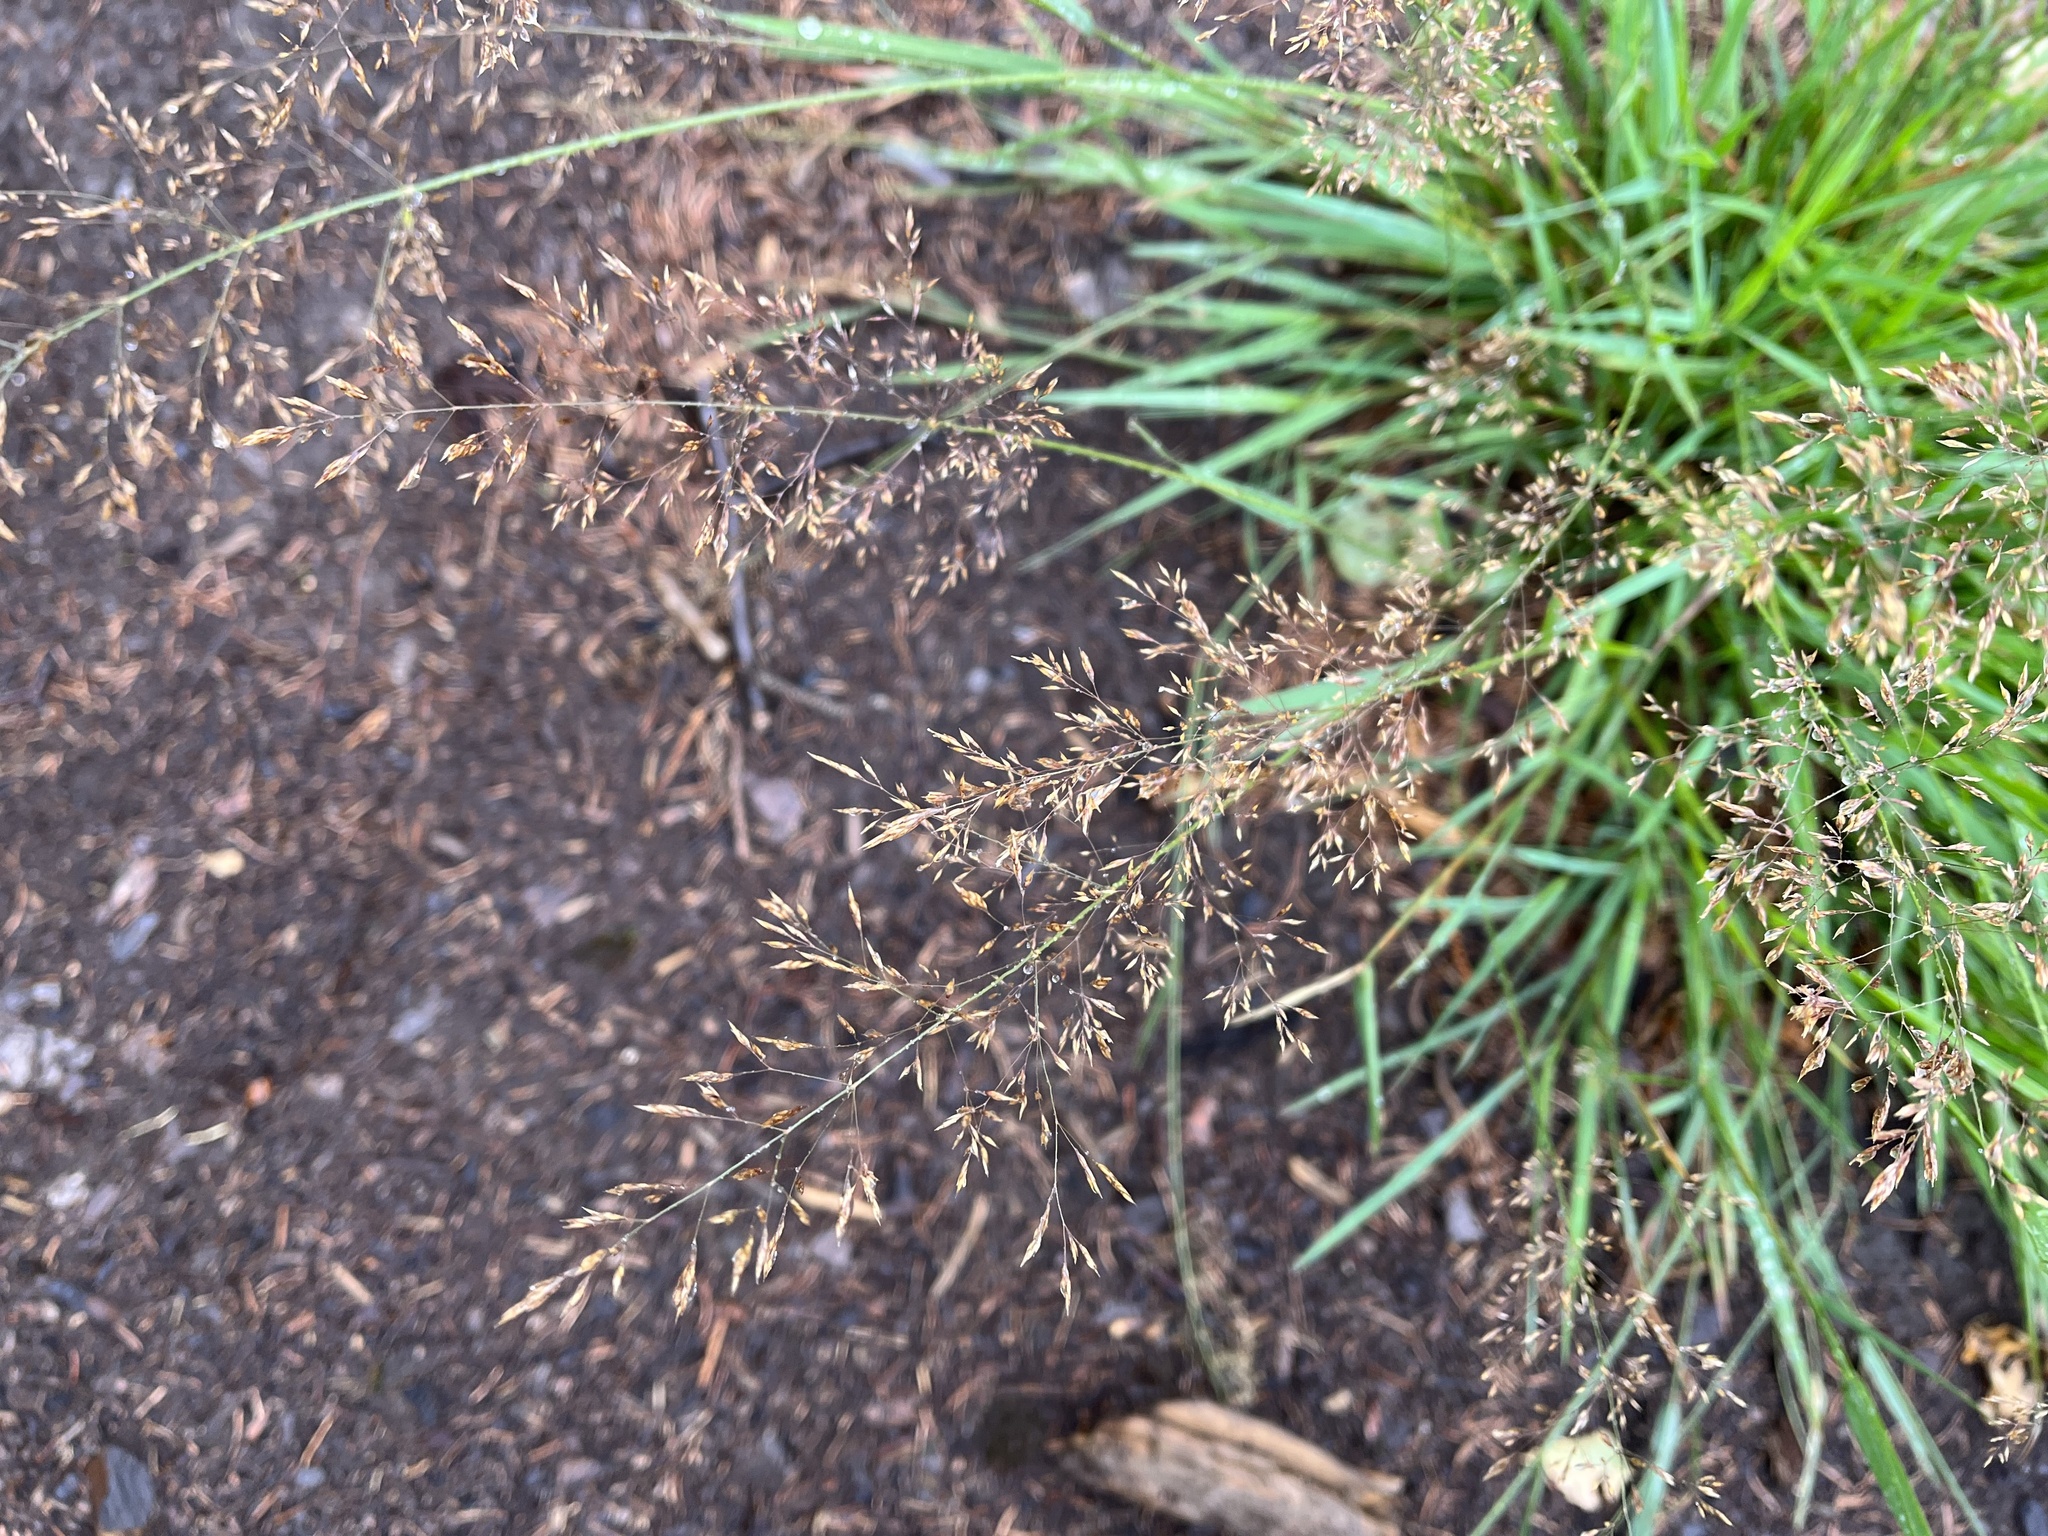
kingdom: Plantae
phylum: Tracheophyta
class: Liliopsida
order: Poales
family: Poaceae
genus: Agrostis
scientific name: Agrostis capillaris
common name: Colonial bentgrass
